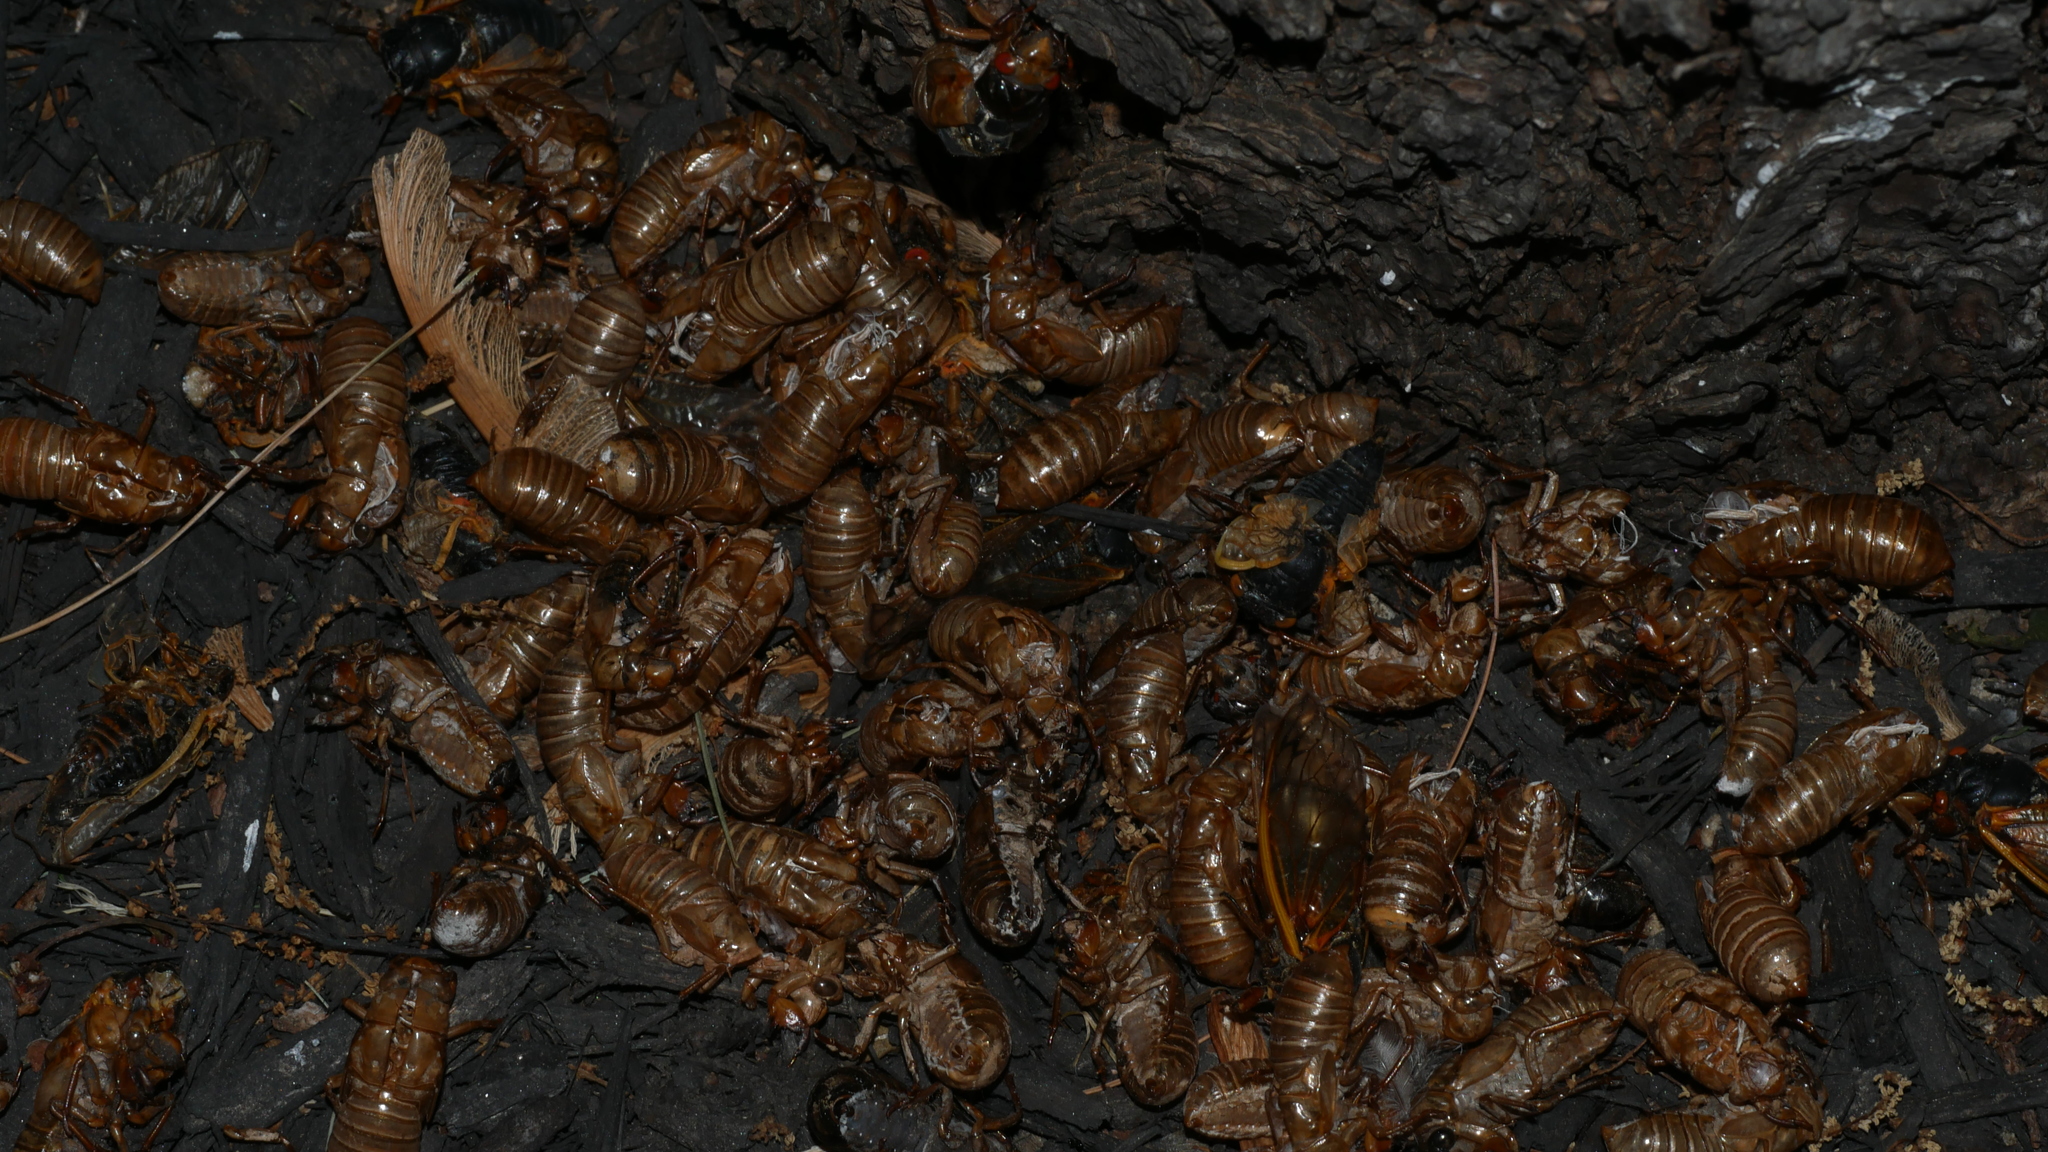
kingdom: Animalia
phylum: Arthropoda
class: Insecta
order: Hemiptera
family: Cicadidae
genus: Magicicada
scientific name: Magicicada
